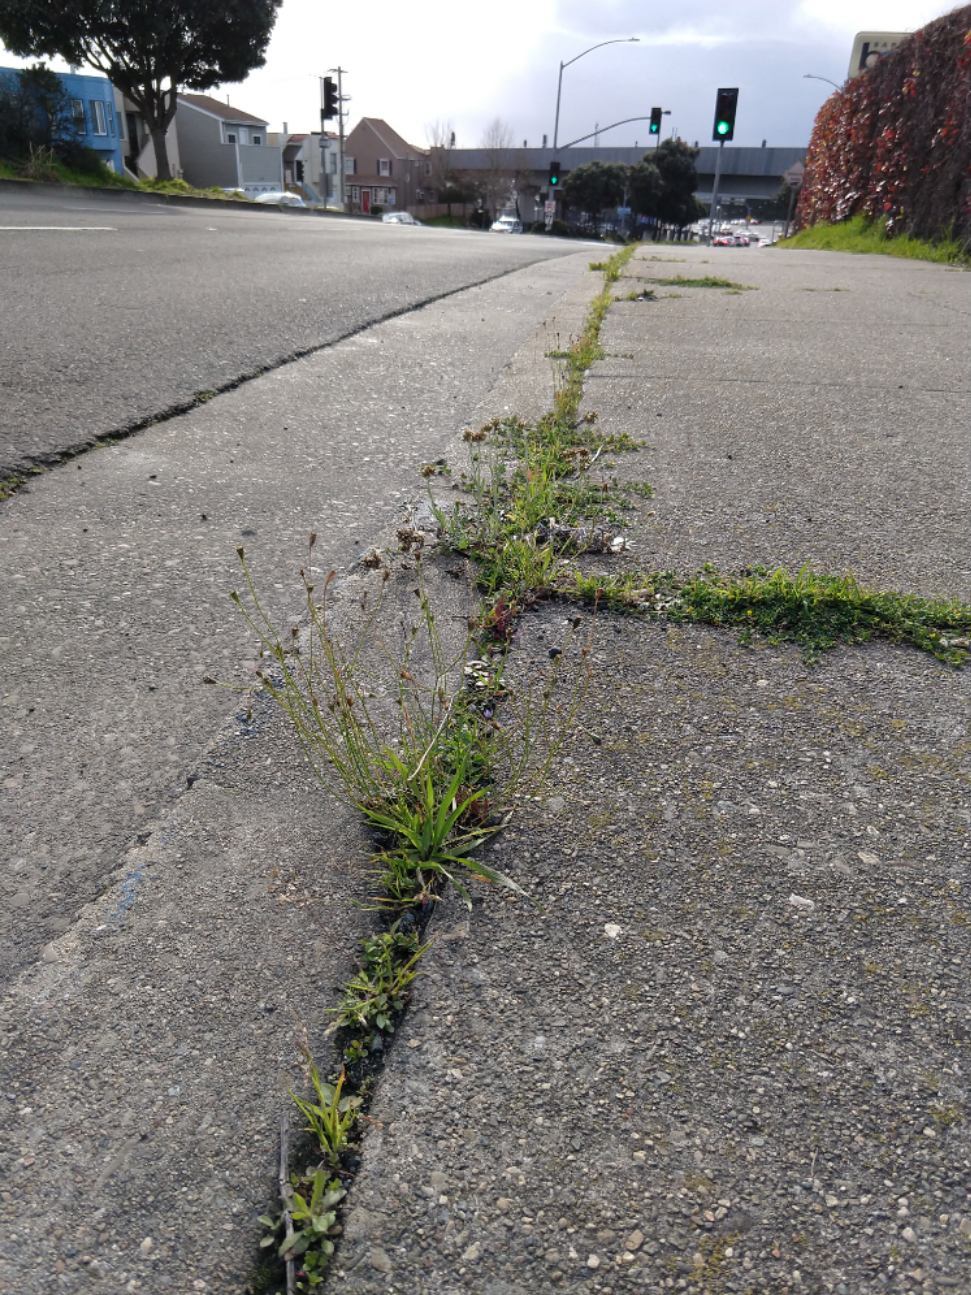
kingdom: Plantae
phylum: Tracheophyta
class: Magnoliopsida
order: Asterales
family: Campanulaceae
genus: Wahlenbergia
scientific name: Wahlenbergia marginata
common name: Southern rockbell
